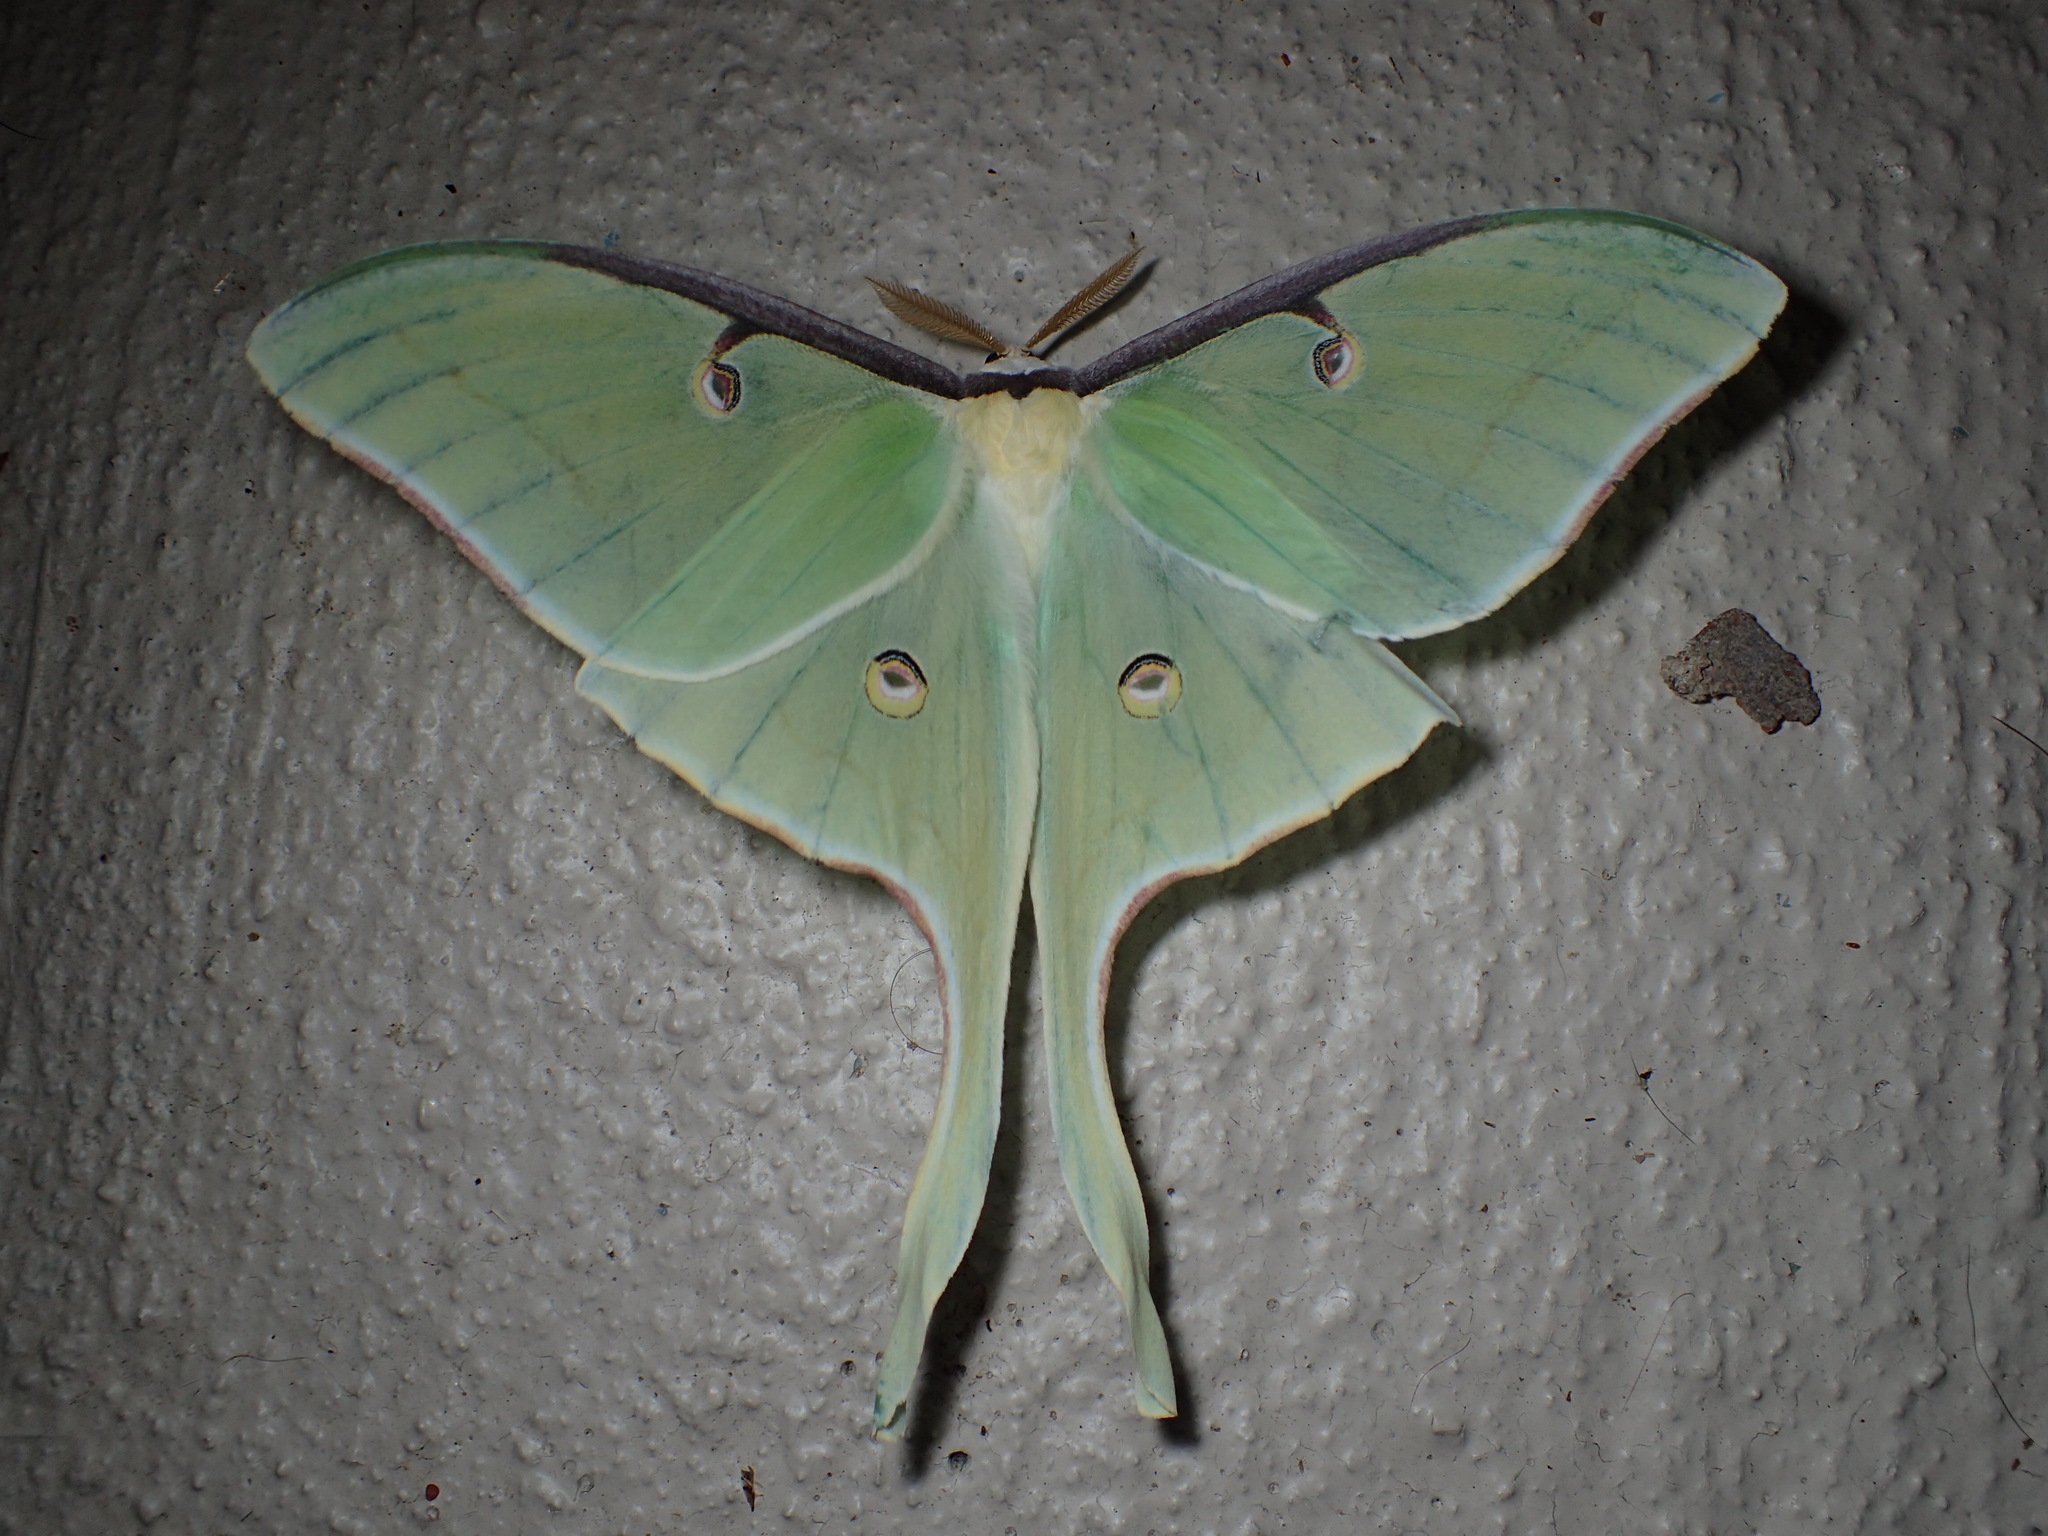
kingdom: Animalia
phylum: Arthropoda
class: Insecta
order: Lepidoptera
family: Saturniidae
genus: Actias
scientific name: Actias luna
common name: Luna moth
